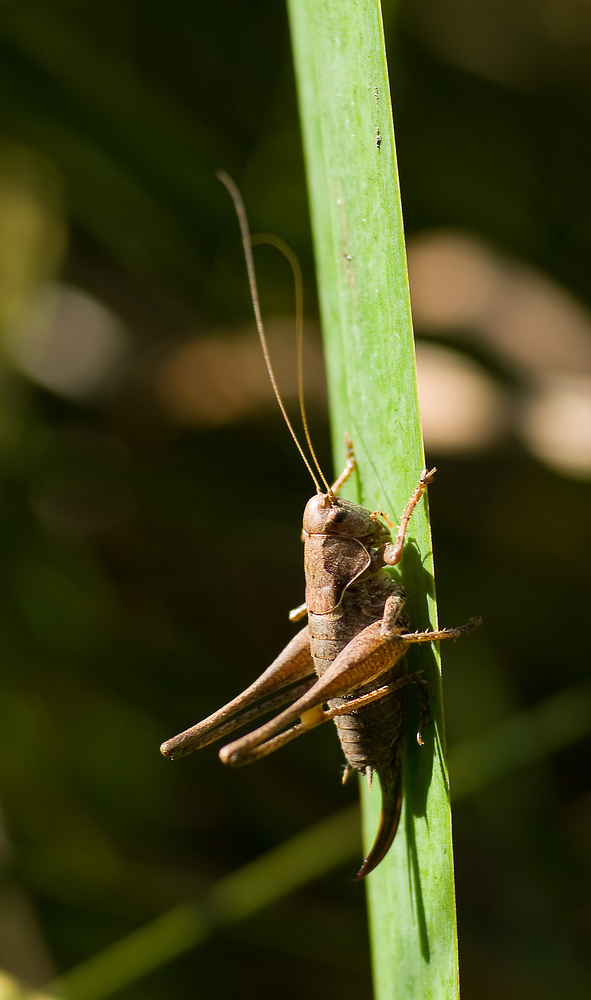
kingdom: Animalia
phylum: Arthropoda
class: Insecta
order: Orthoptera
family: Tettigoniidae
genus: Pholidoptera
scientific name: Pholidoptera griseoaptera
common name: Dark bush-cricket
